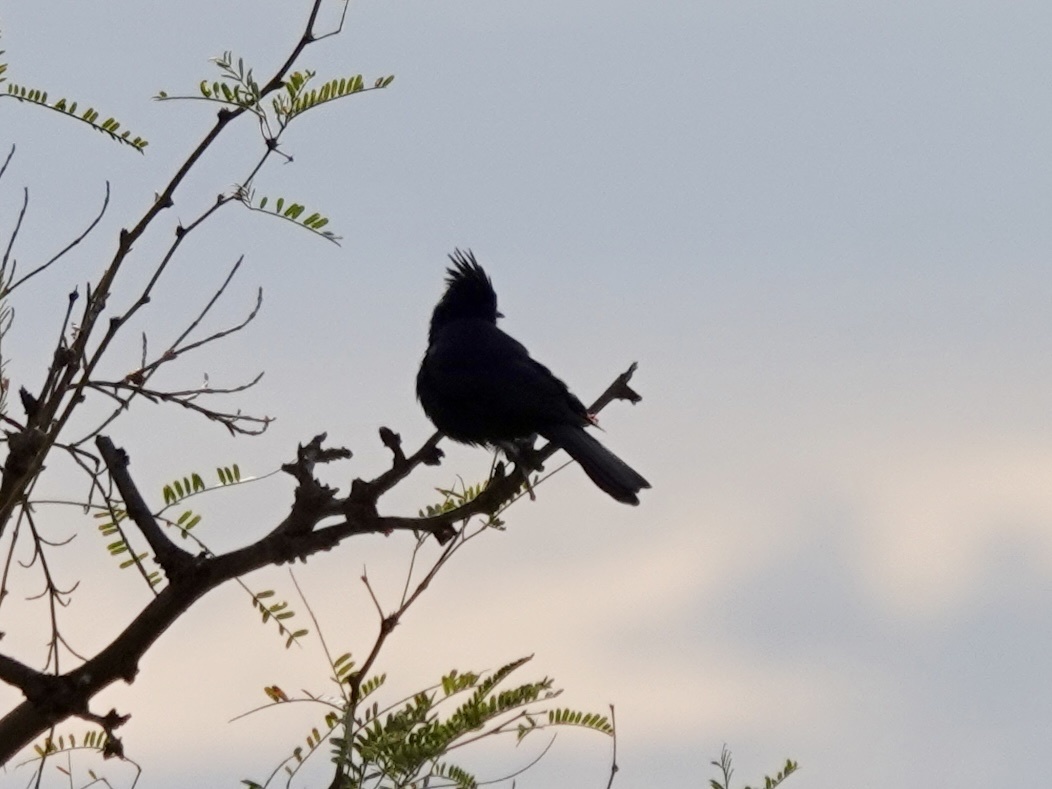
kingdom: Animalia
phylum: Chordata
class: Aves
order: Passeriformes
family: Ptilogonatidae
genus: Phainopepla
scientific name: Phainopepla nitens
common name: Phainopepla
